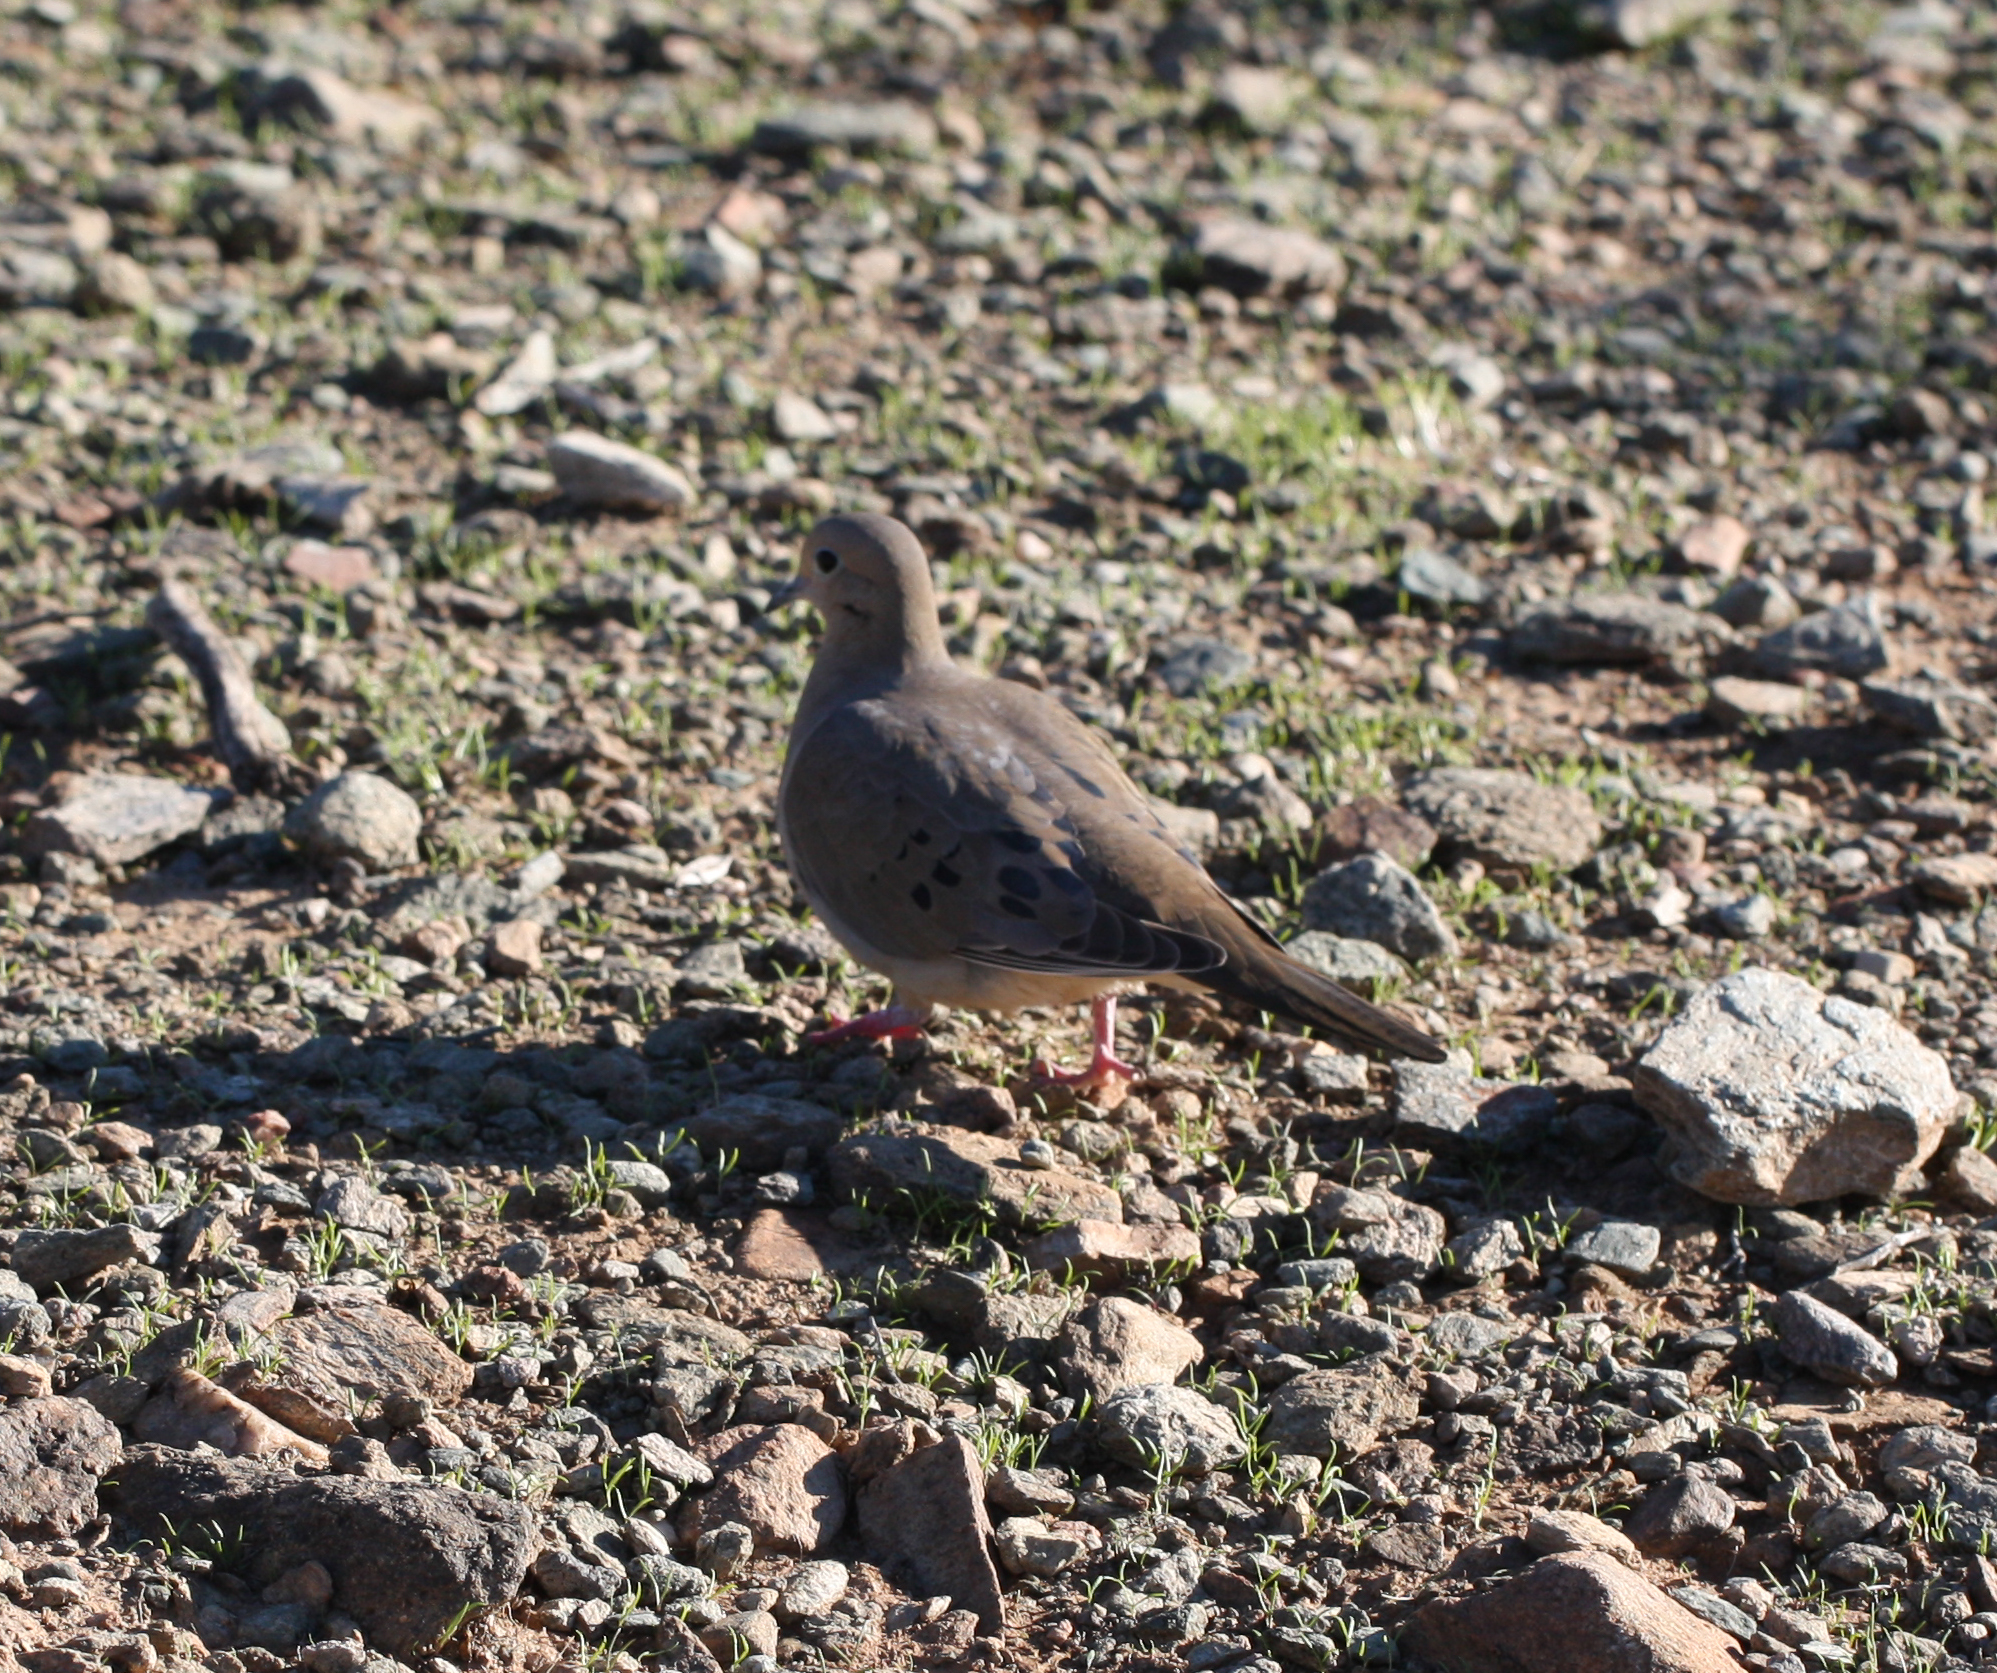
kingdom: Animalia
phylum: Chordata
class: Aves
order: Columbiformes
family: Columbidae
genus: Zenaida
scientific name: Zenaida macroura
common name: Mourning dove
